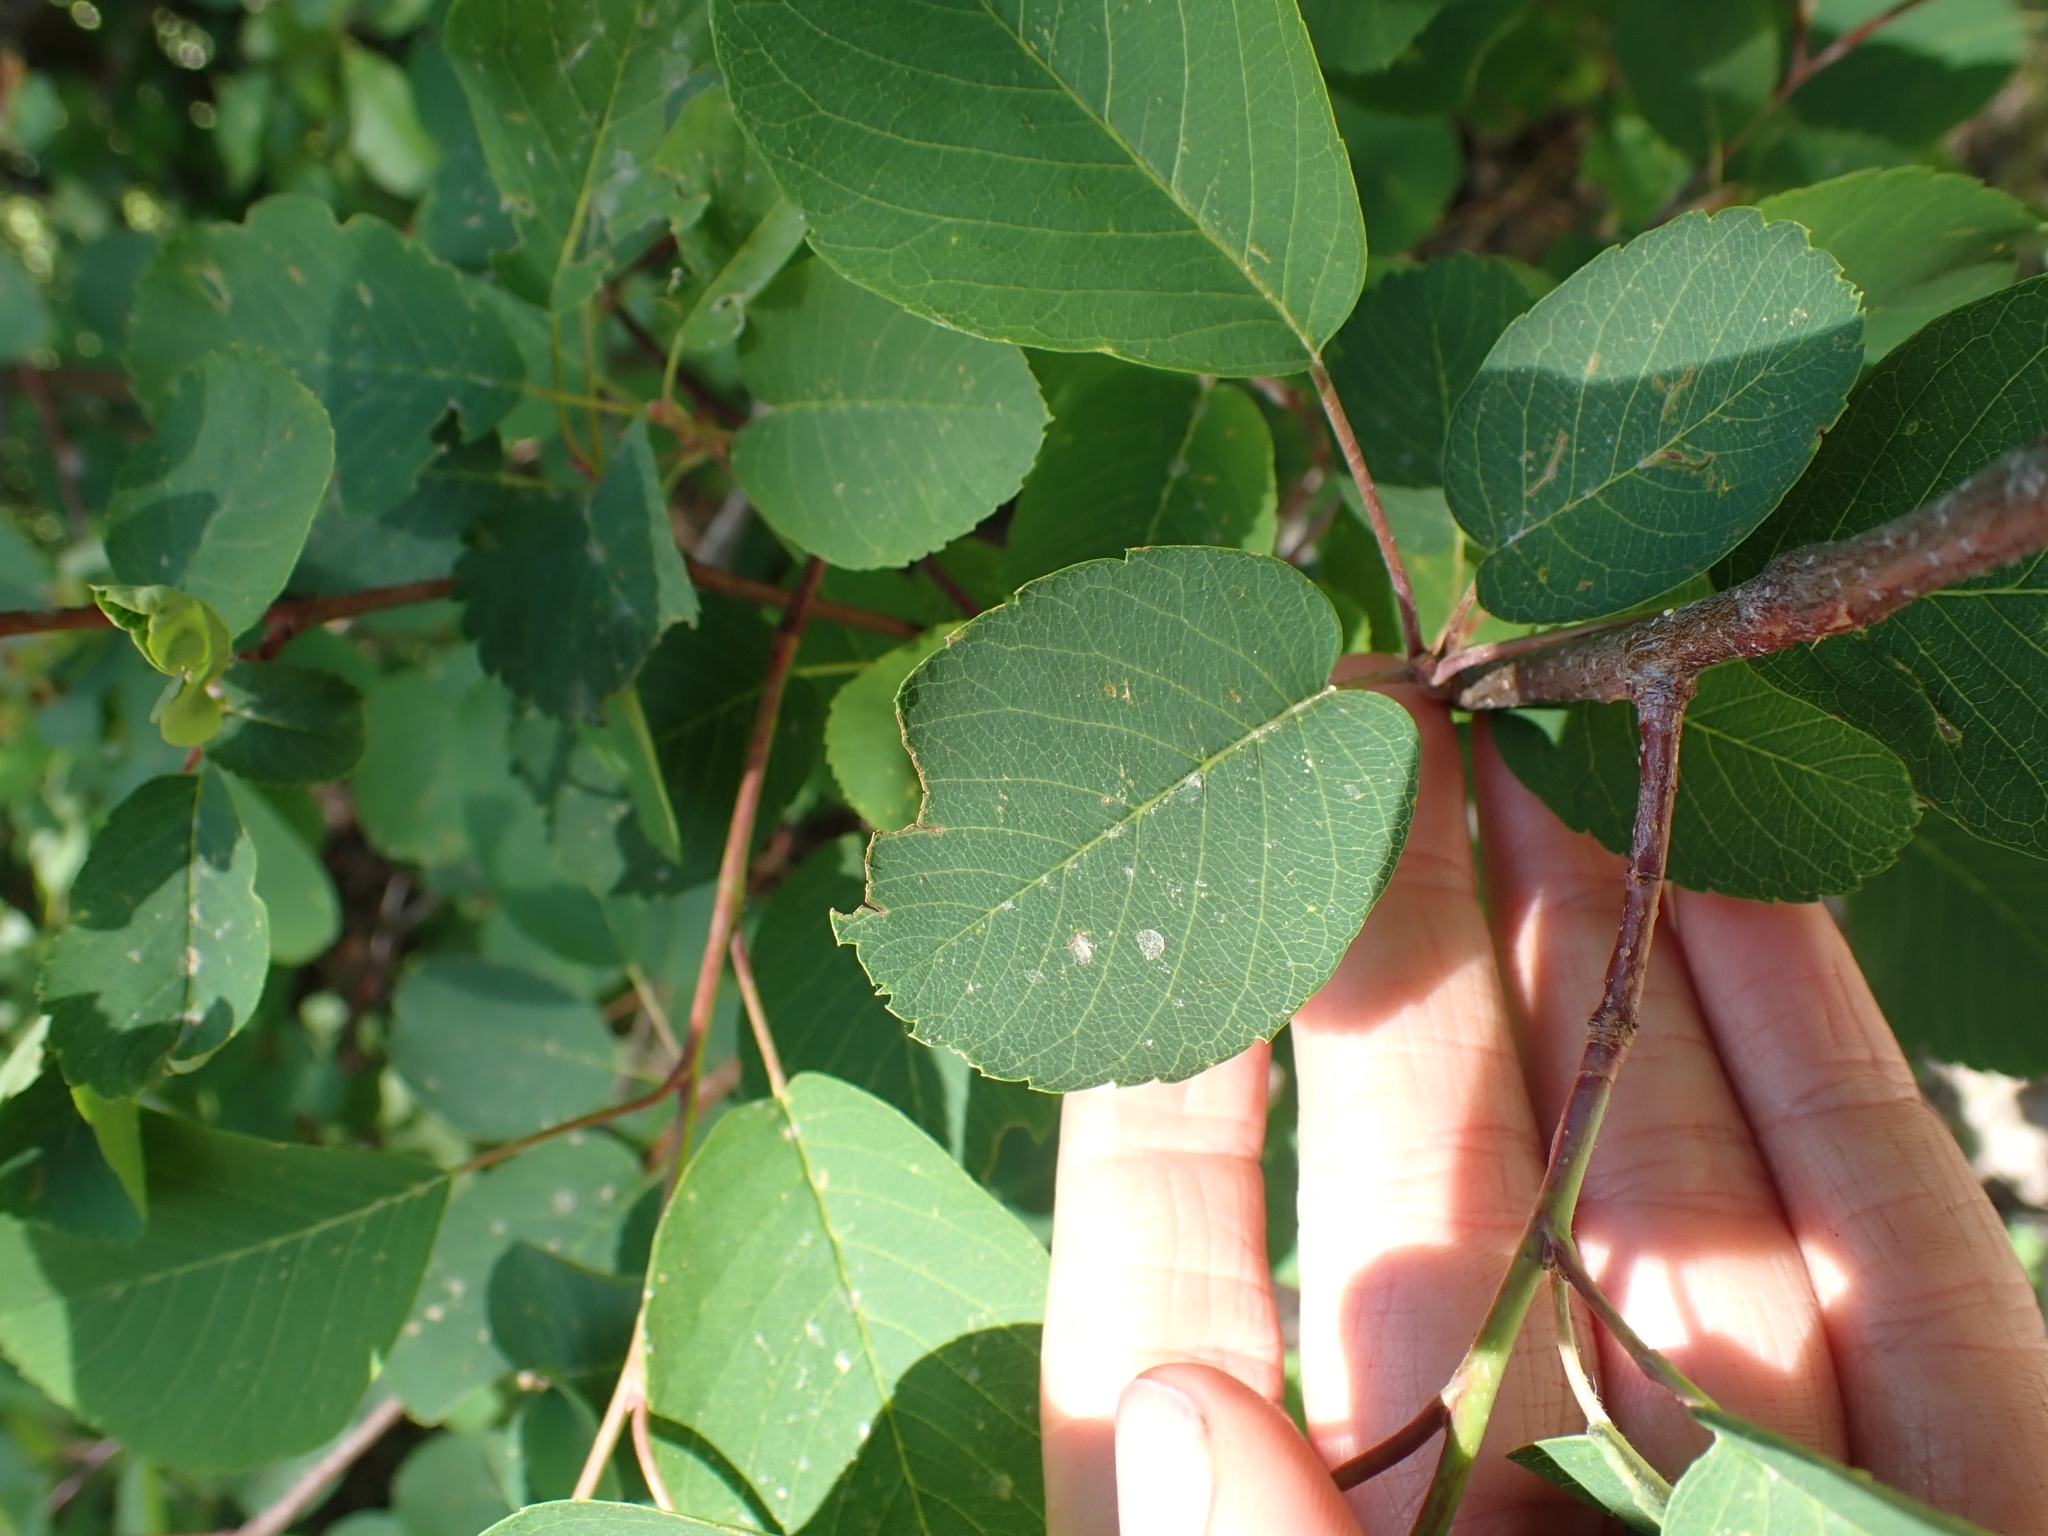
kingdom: Plantae
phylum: Tracheophyta
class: Magnoliopsida
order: Rosales
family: Rosaceae
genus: Amelanchier
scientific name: Amelanchier alnifolia
